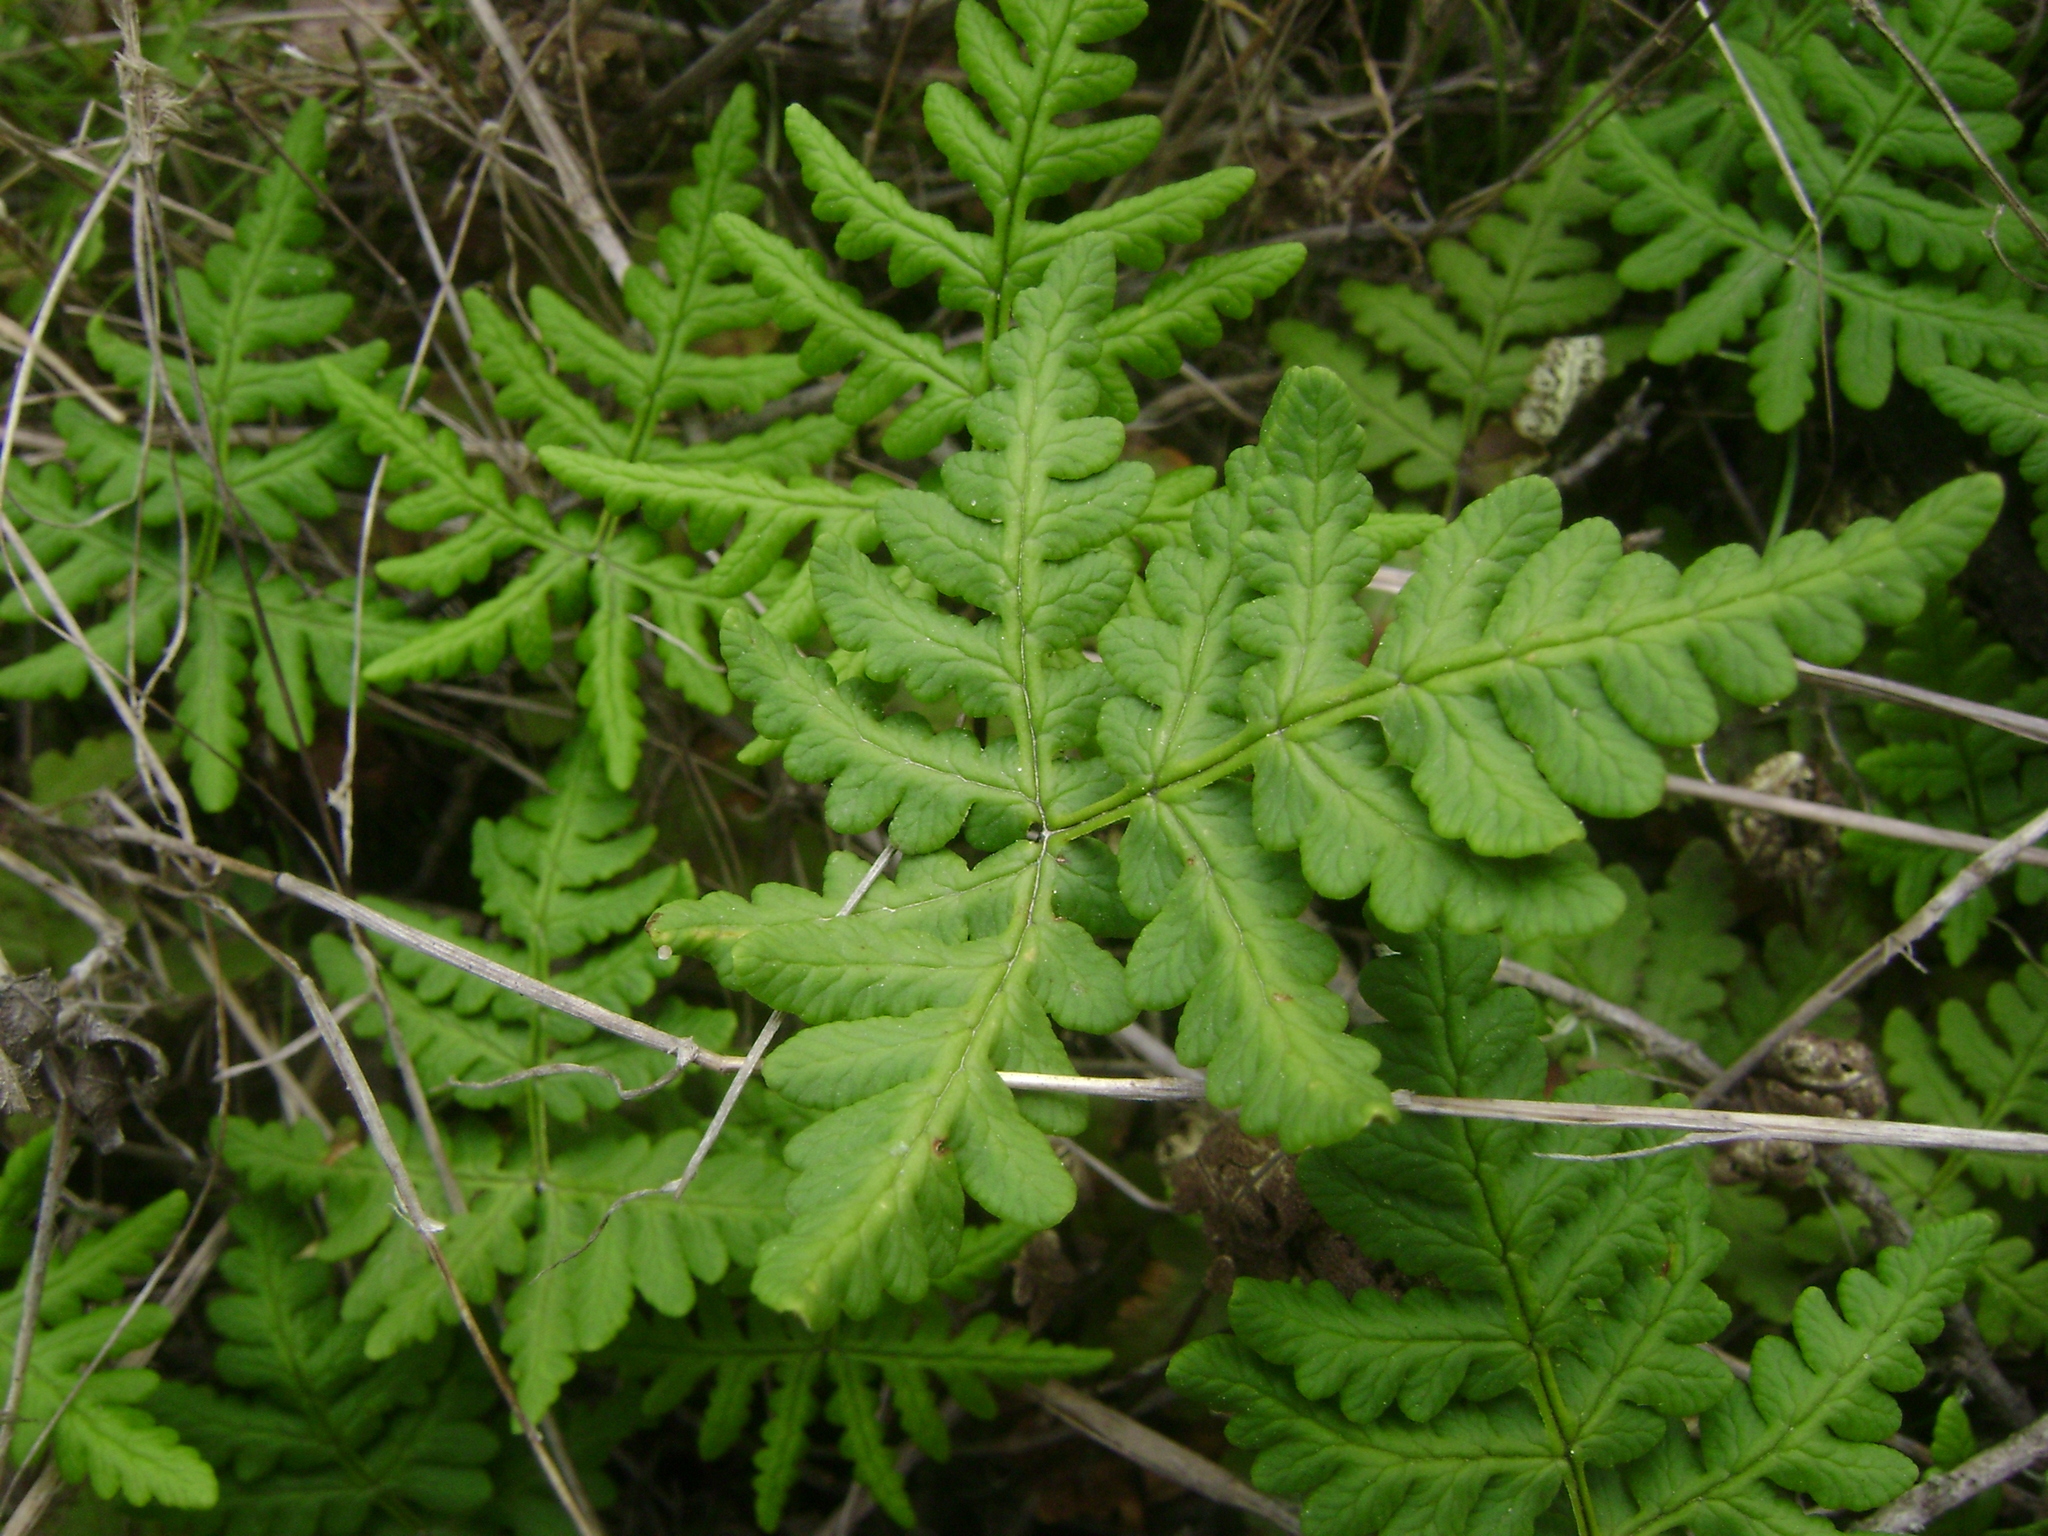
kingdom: Plantae
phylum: Tracheophyta
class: Polypodiopsida
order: Polypodiales
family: Pteridaceae
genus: Pentagramma
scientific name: Pentagramma triangularis
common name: Gold fern
